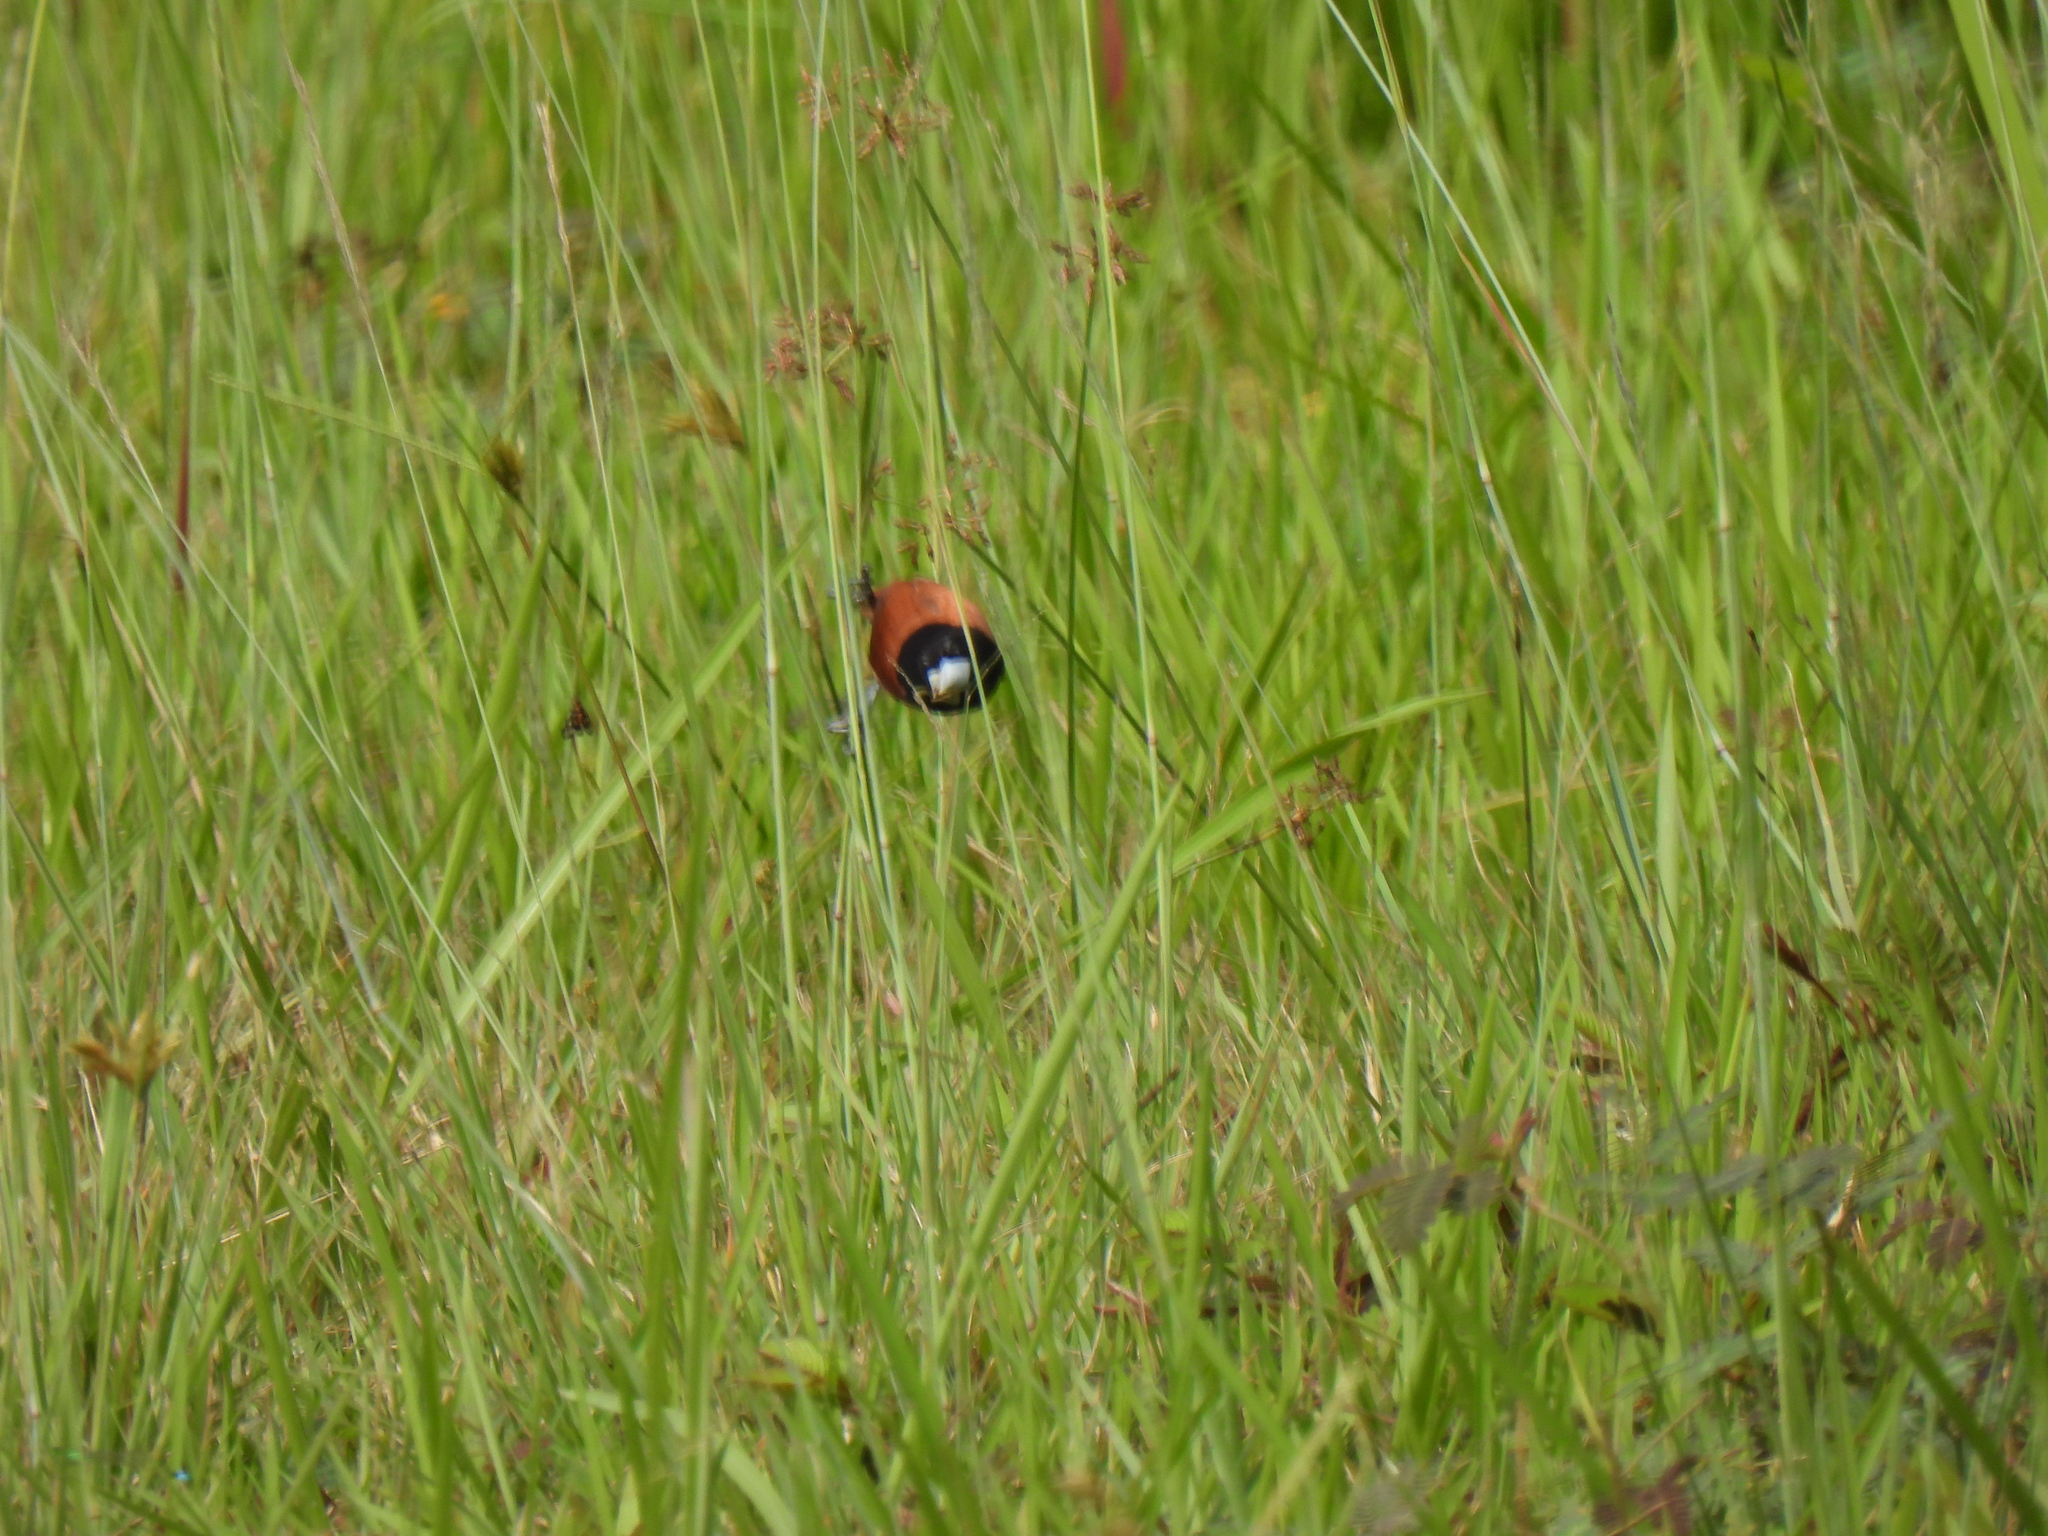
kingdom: Animalia
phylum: Chordata
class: Aves
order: Passeriformes
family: Estrildidae
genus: Lonchura
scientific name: Lonchura atricapilla
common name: Chestnut munia
